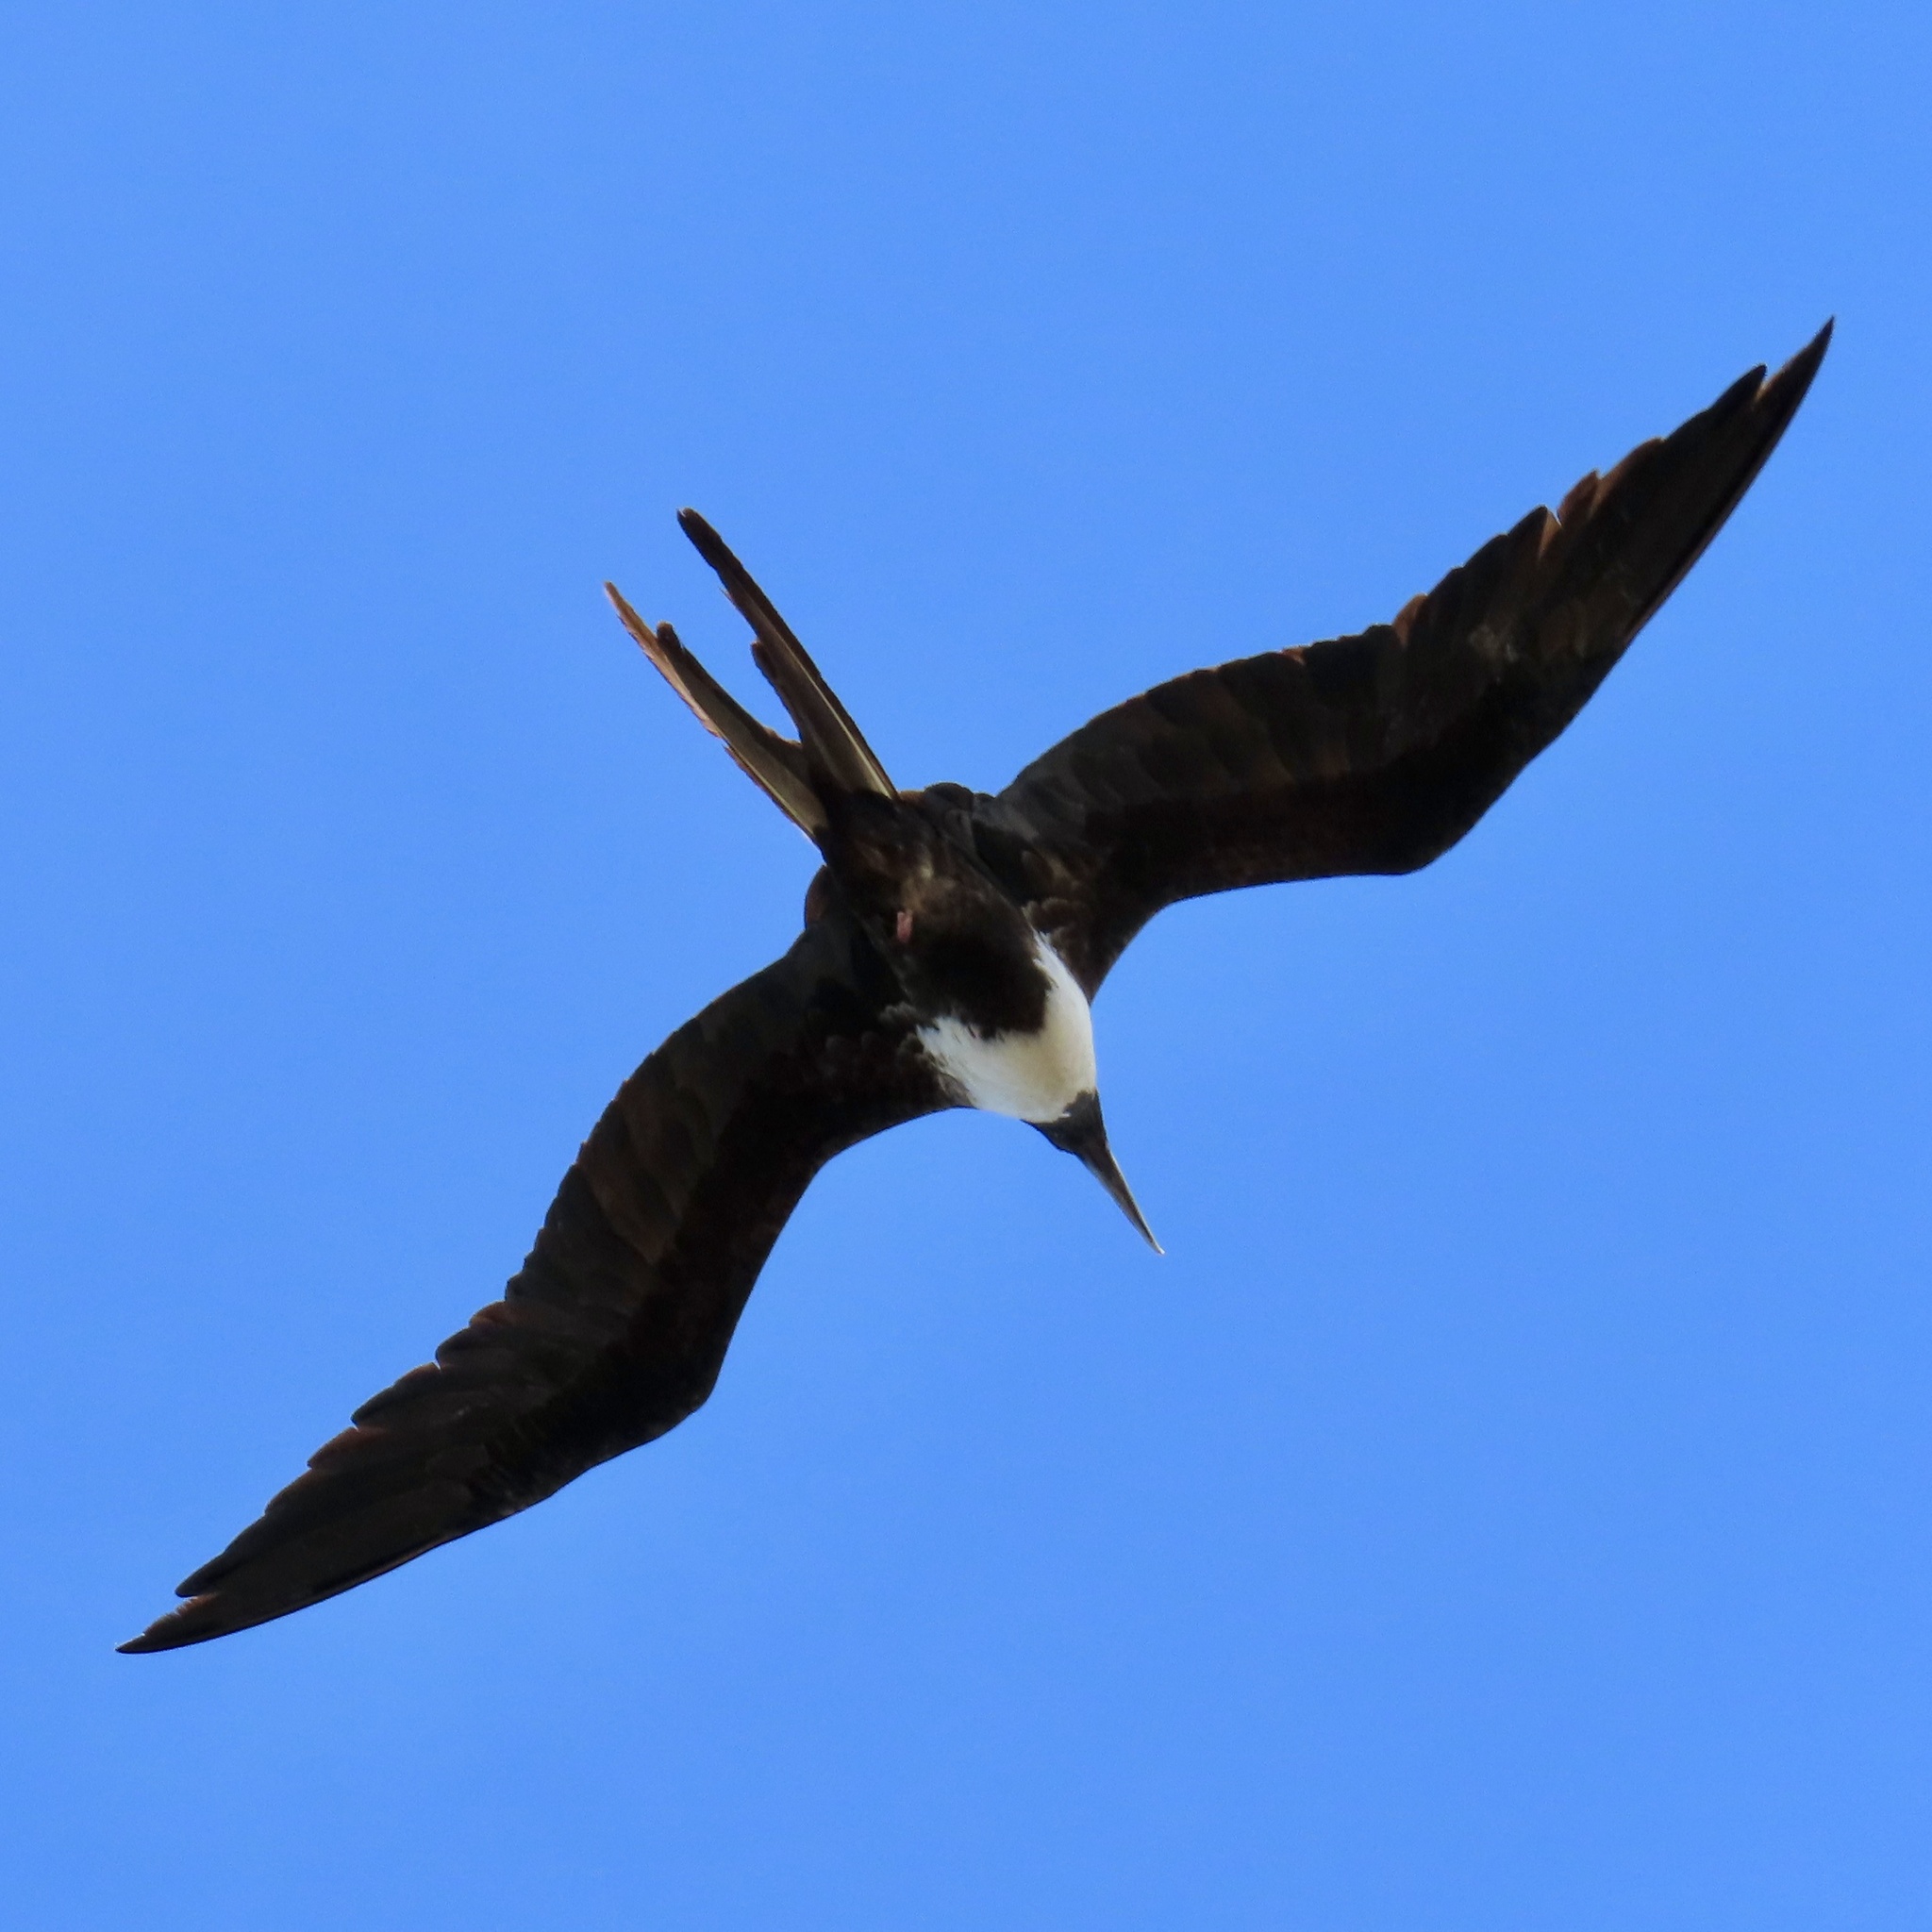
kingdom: Animalia
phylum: Chordata
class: Aves
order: Suliformes
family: Fregatidae
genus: Fregata
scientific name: Fregata magnificens
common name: Magnificent frigatebird
